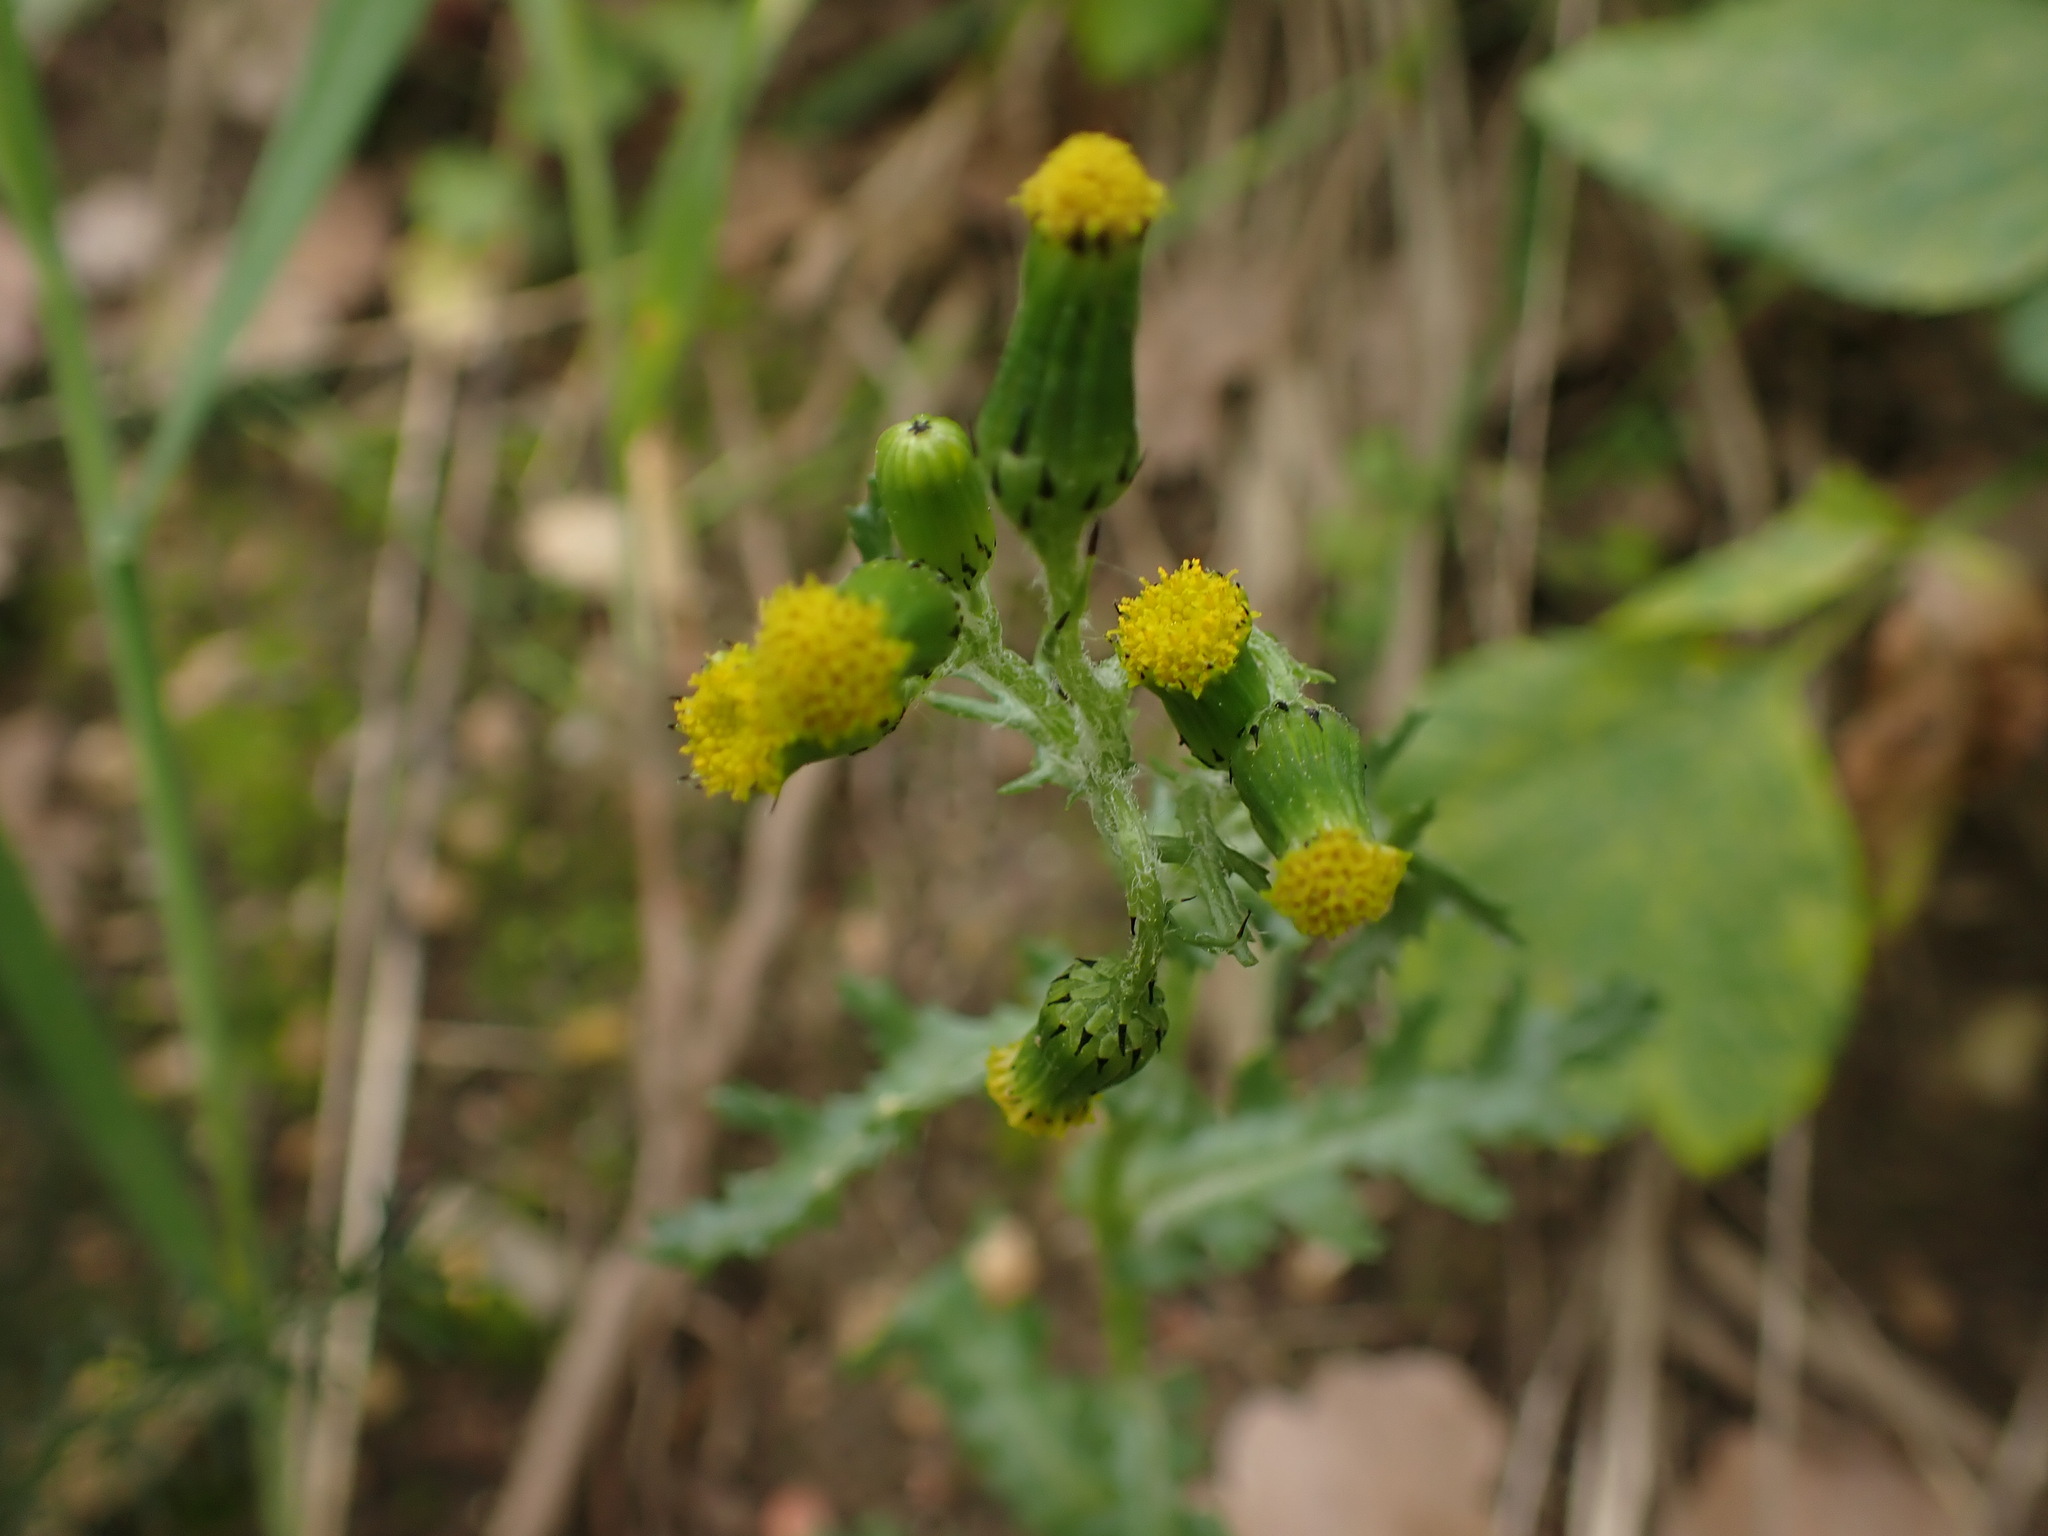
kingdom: Plantae
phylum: Tracheophyta
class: Magnoliopsida
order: Asterales
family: Asteraceae
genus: Senecio
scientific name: Senecio vulgaris
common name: Old-man-in-the-spring
